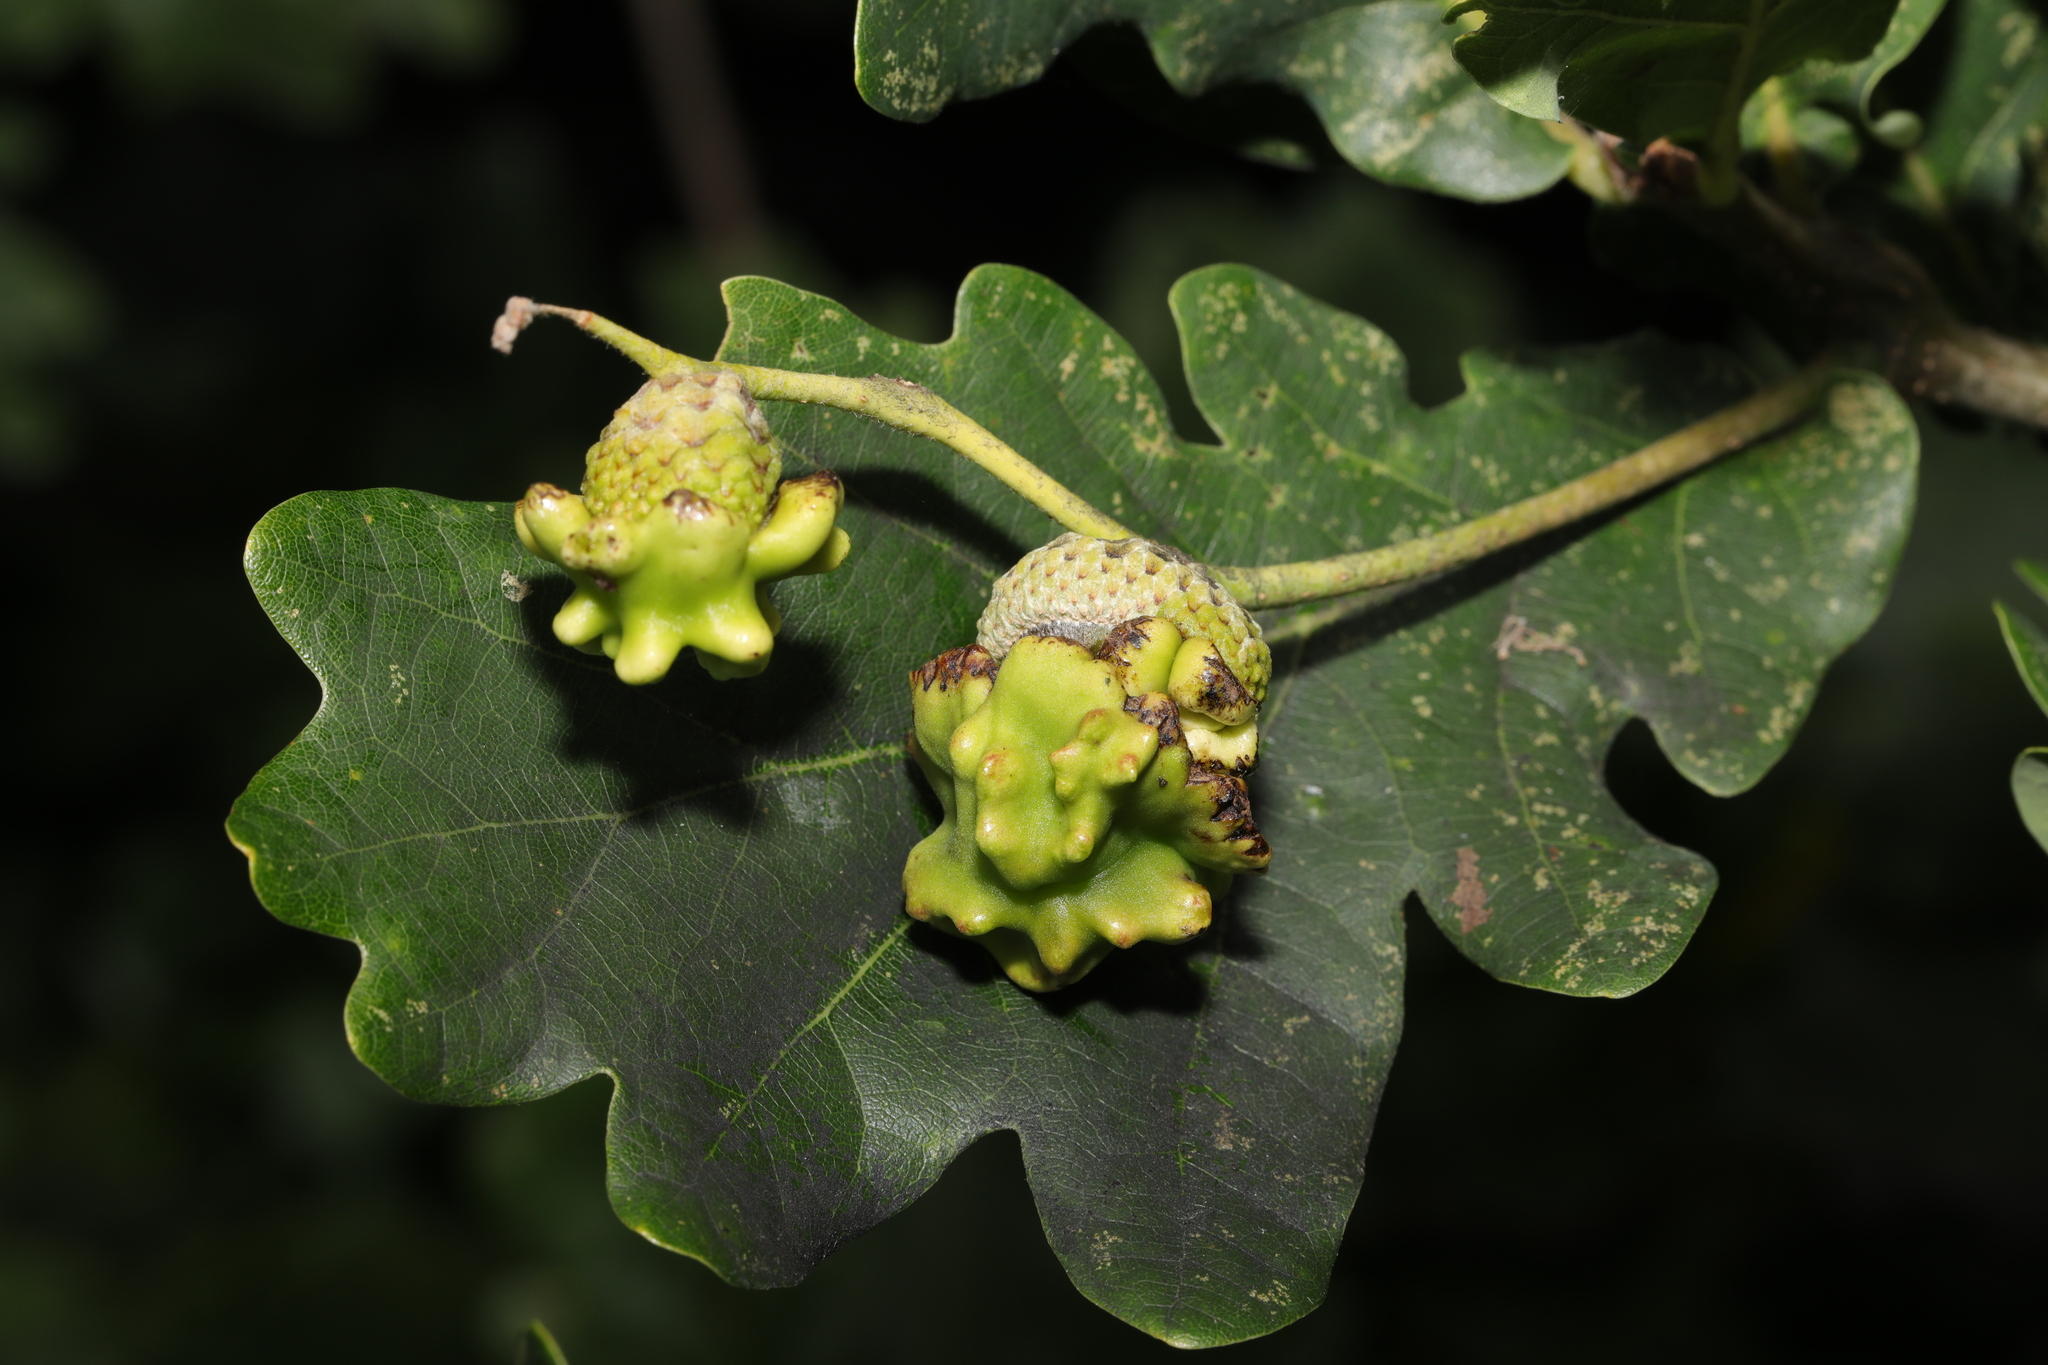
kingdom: Animalia
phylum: Arthropoda
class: Insecta
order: Hymenoptera
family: Cynipidae
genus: Andricus
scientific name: Andricus quercuscalicis
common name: Knopper gall
